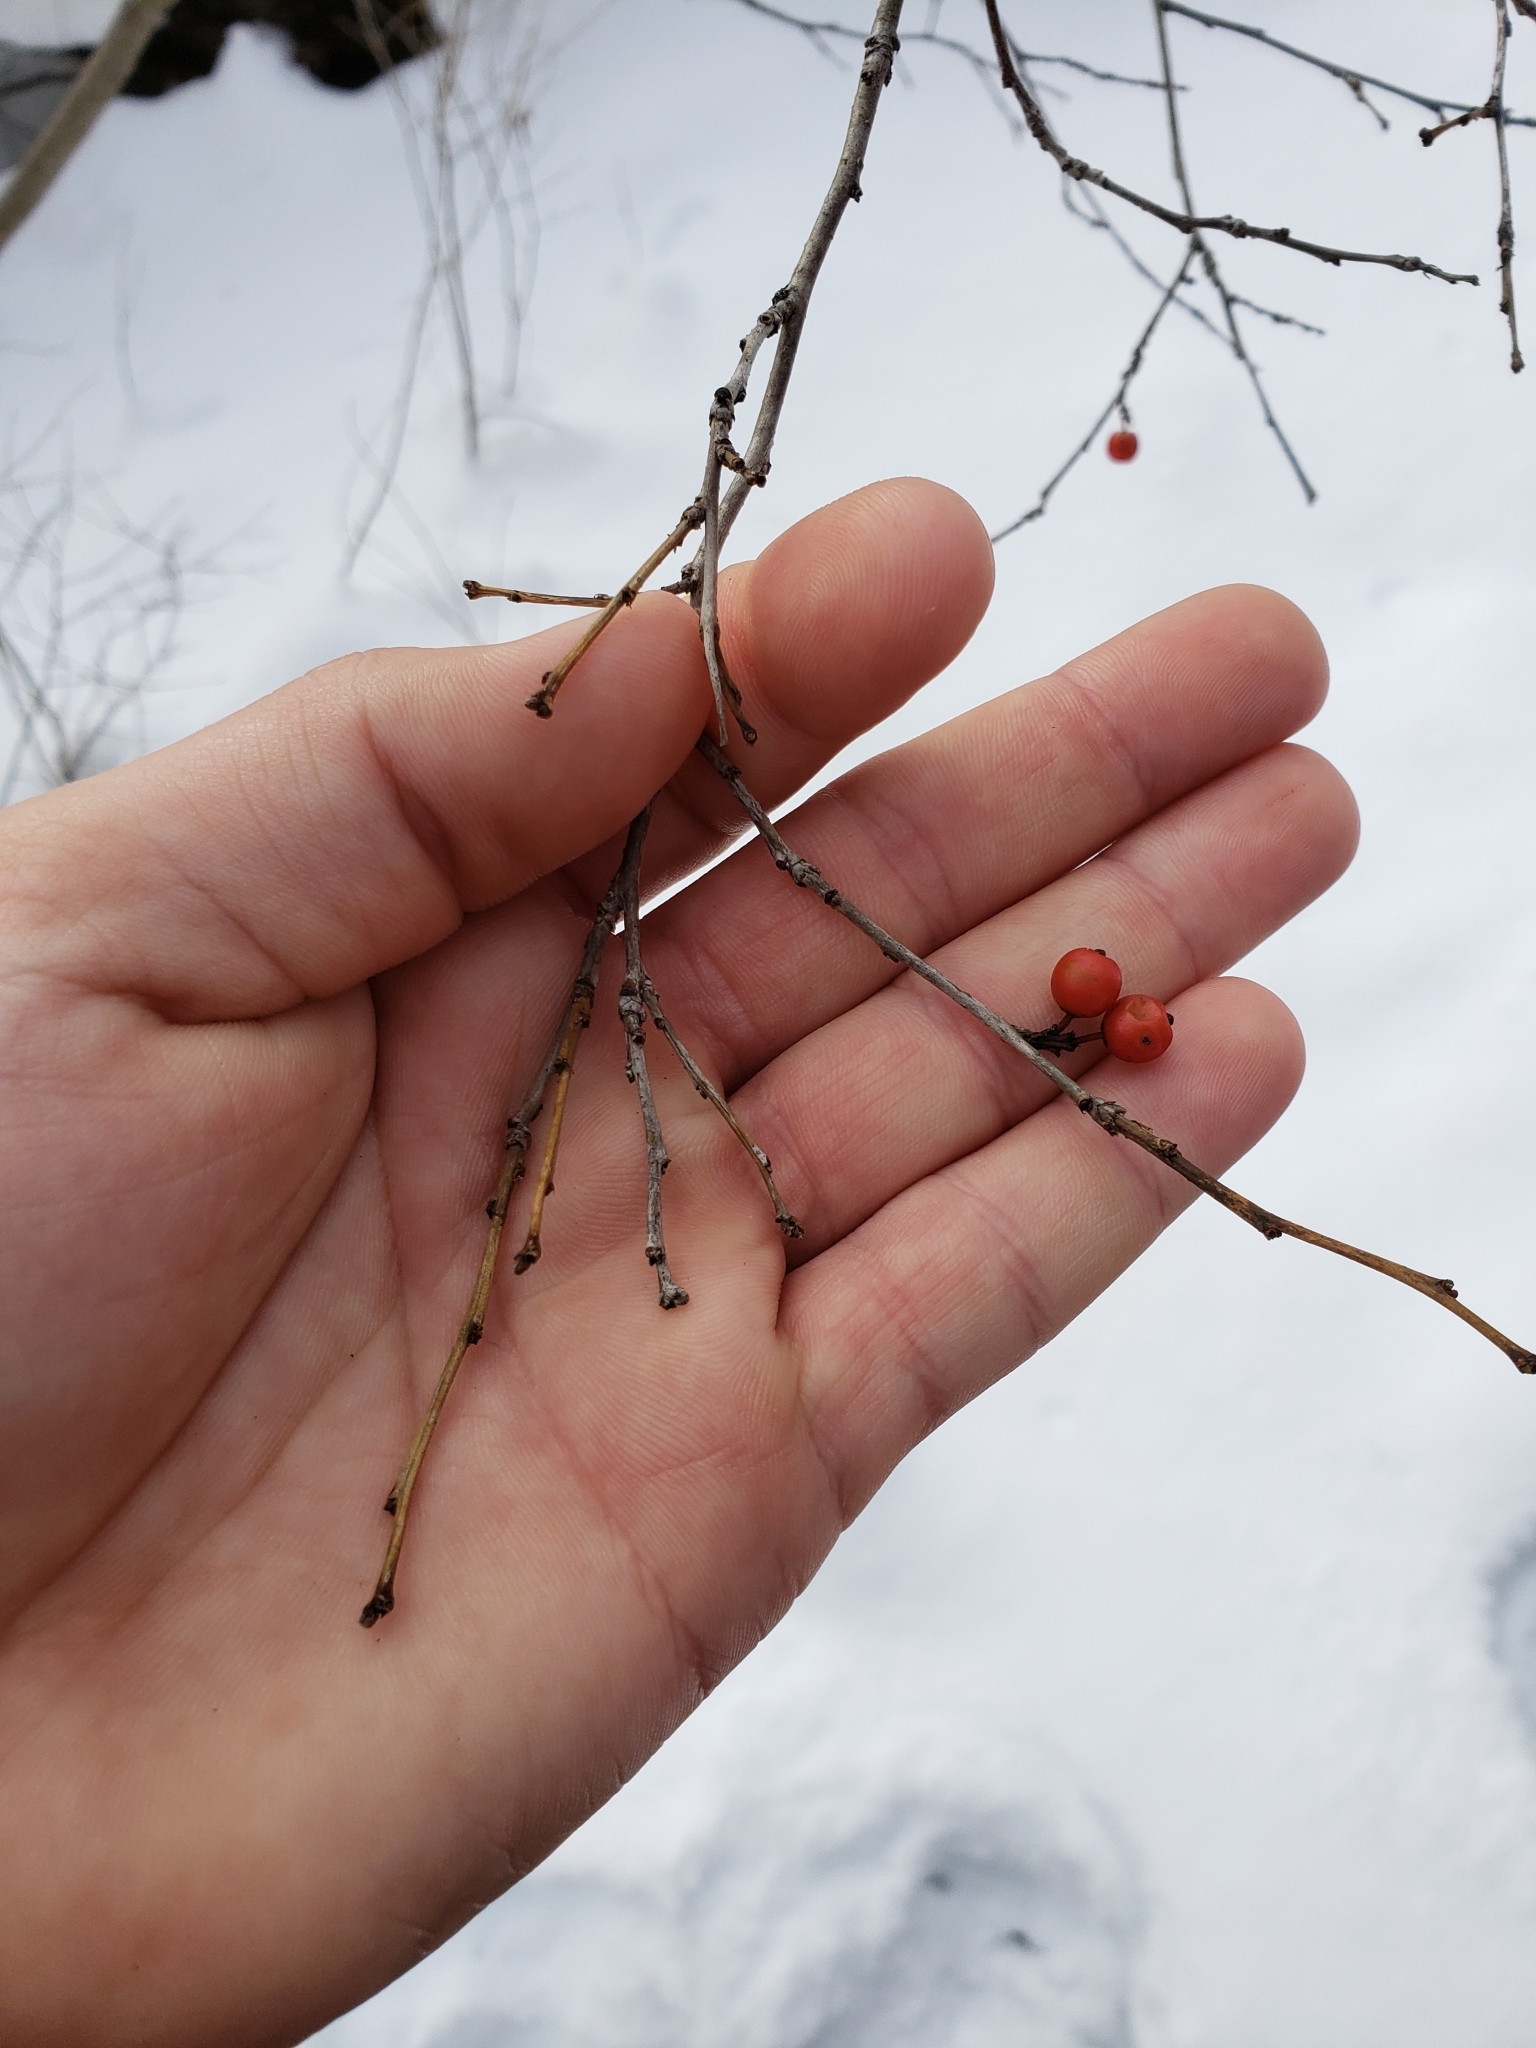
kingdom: Plantae
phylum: Tracheophyta
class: Magnoliopsida
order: Aquifoliales
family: Aquifoliaceae
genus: Ilex
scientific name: Ilex verticillata
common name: Virginia winterberry
